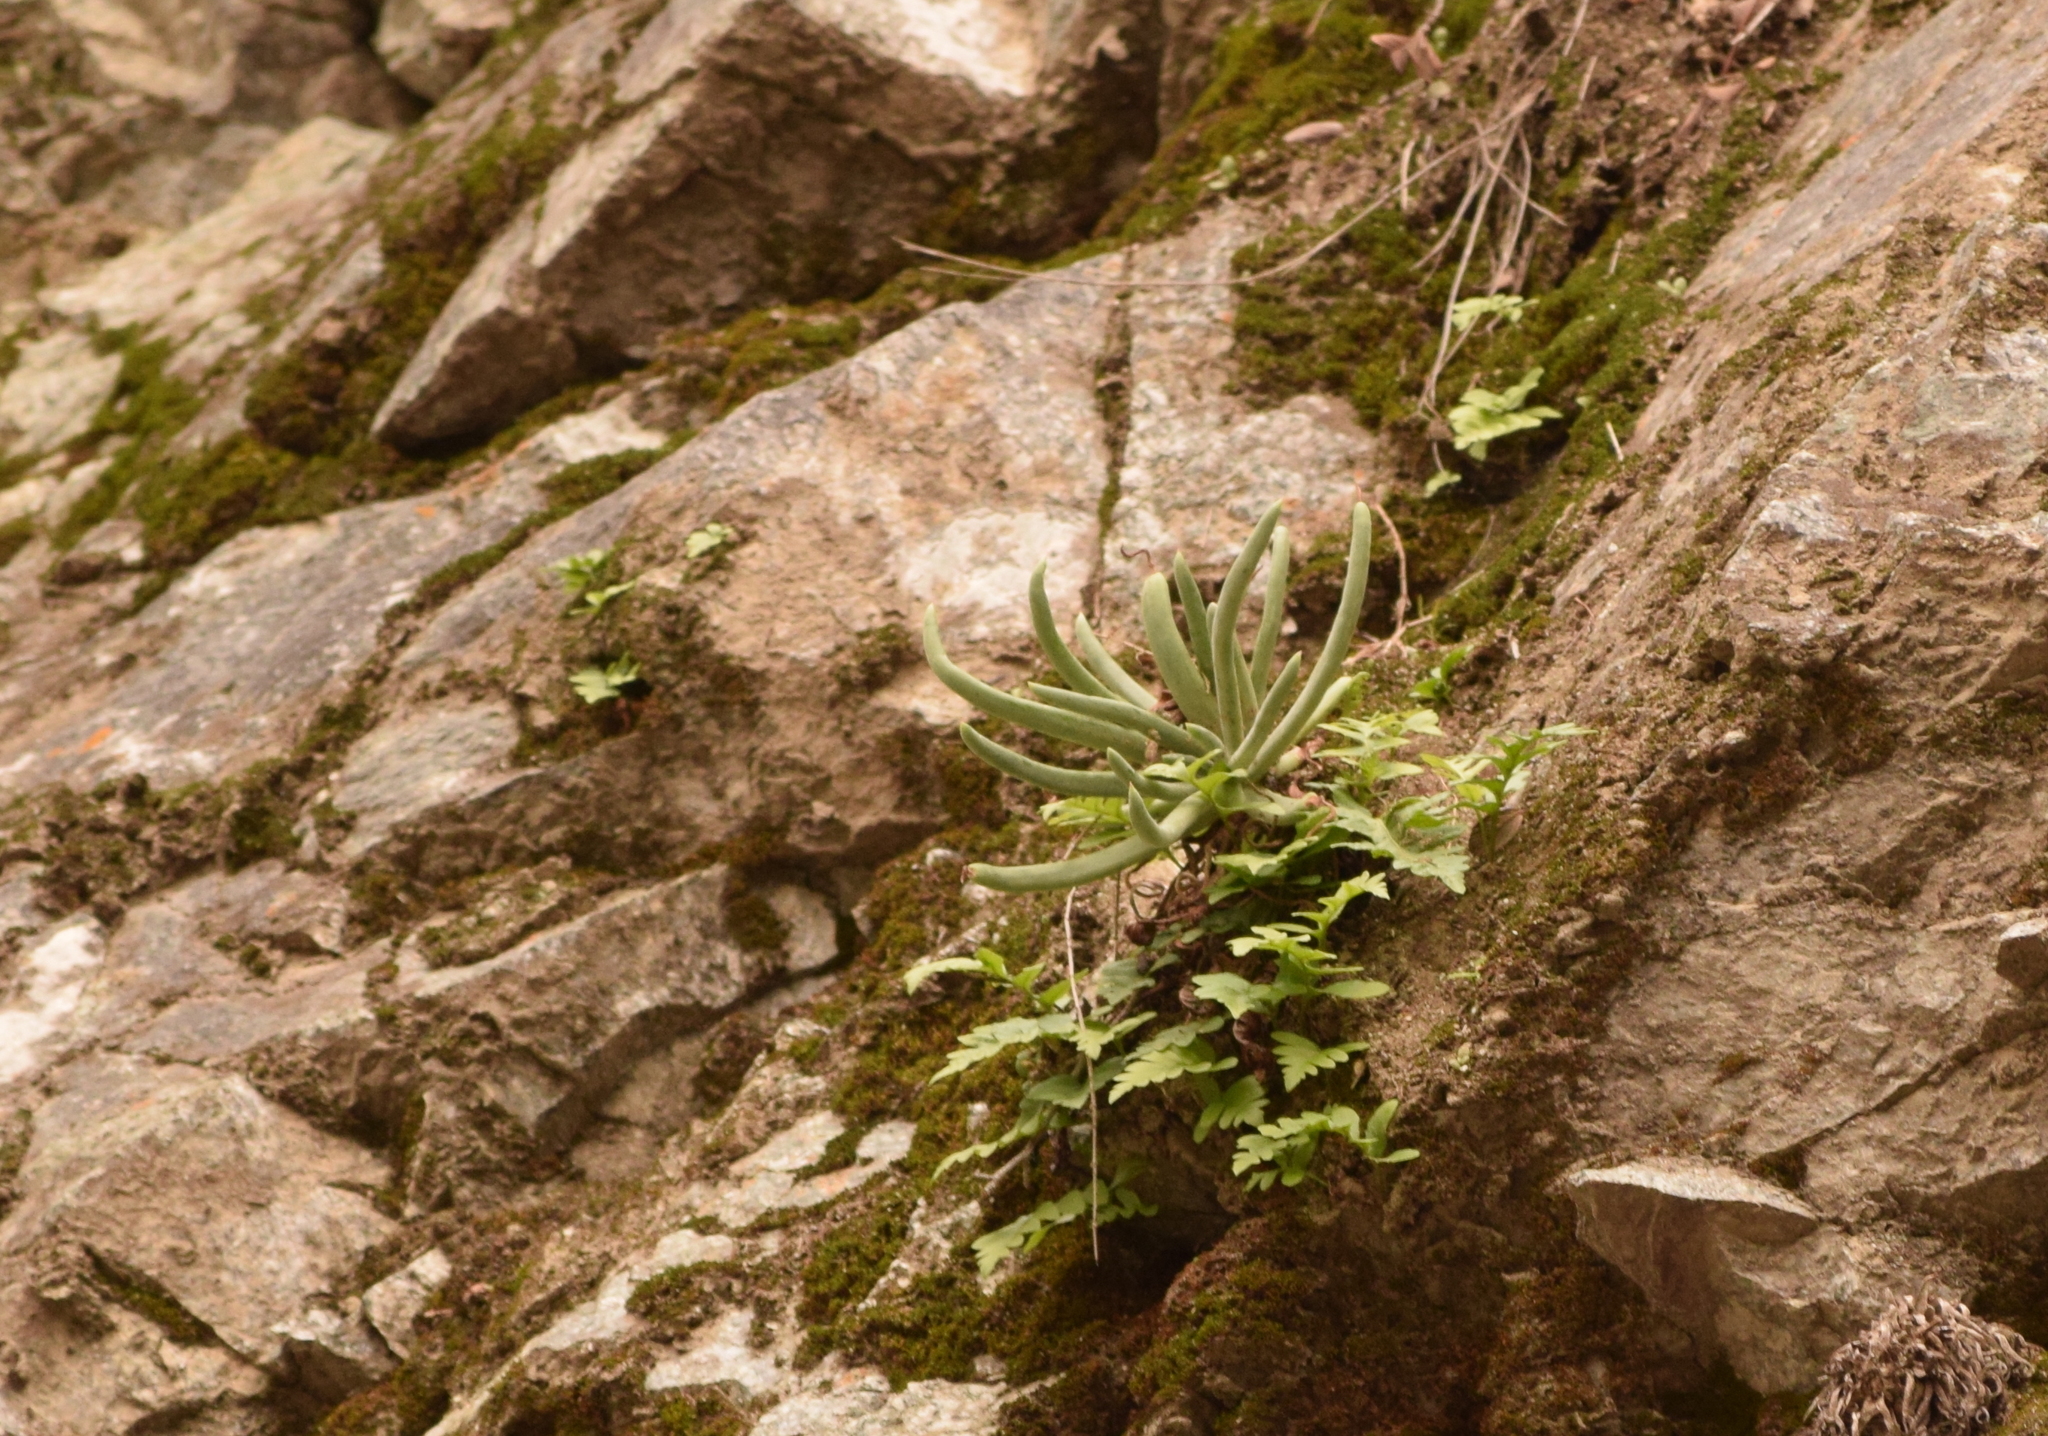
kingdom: Plantae
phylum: Tracheophyta
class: Magnoliopsida
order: Saxifragales
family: Crassulaceae
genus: Dudleya
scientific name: Dudleya densiflora
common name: San gabriel mountains dudleya
